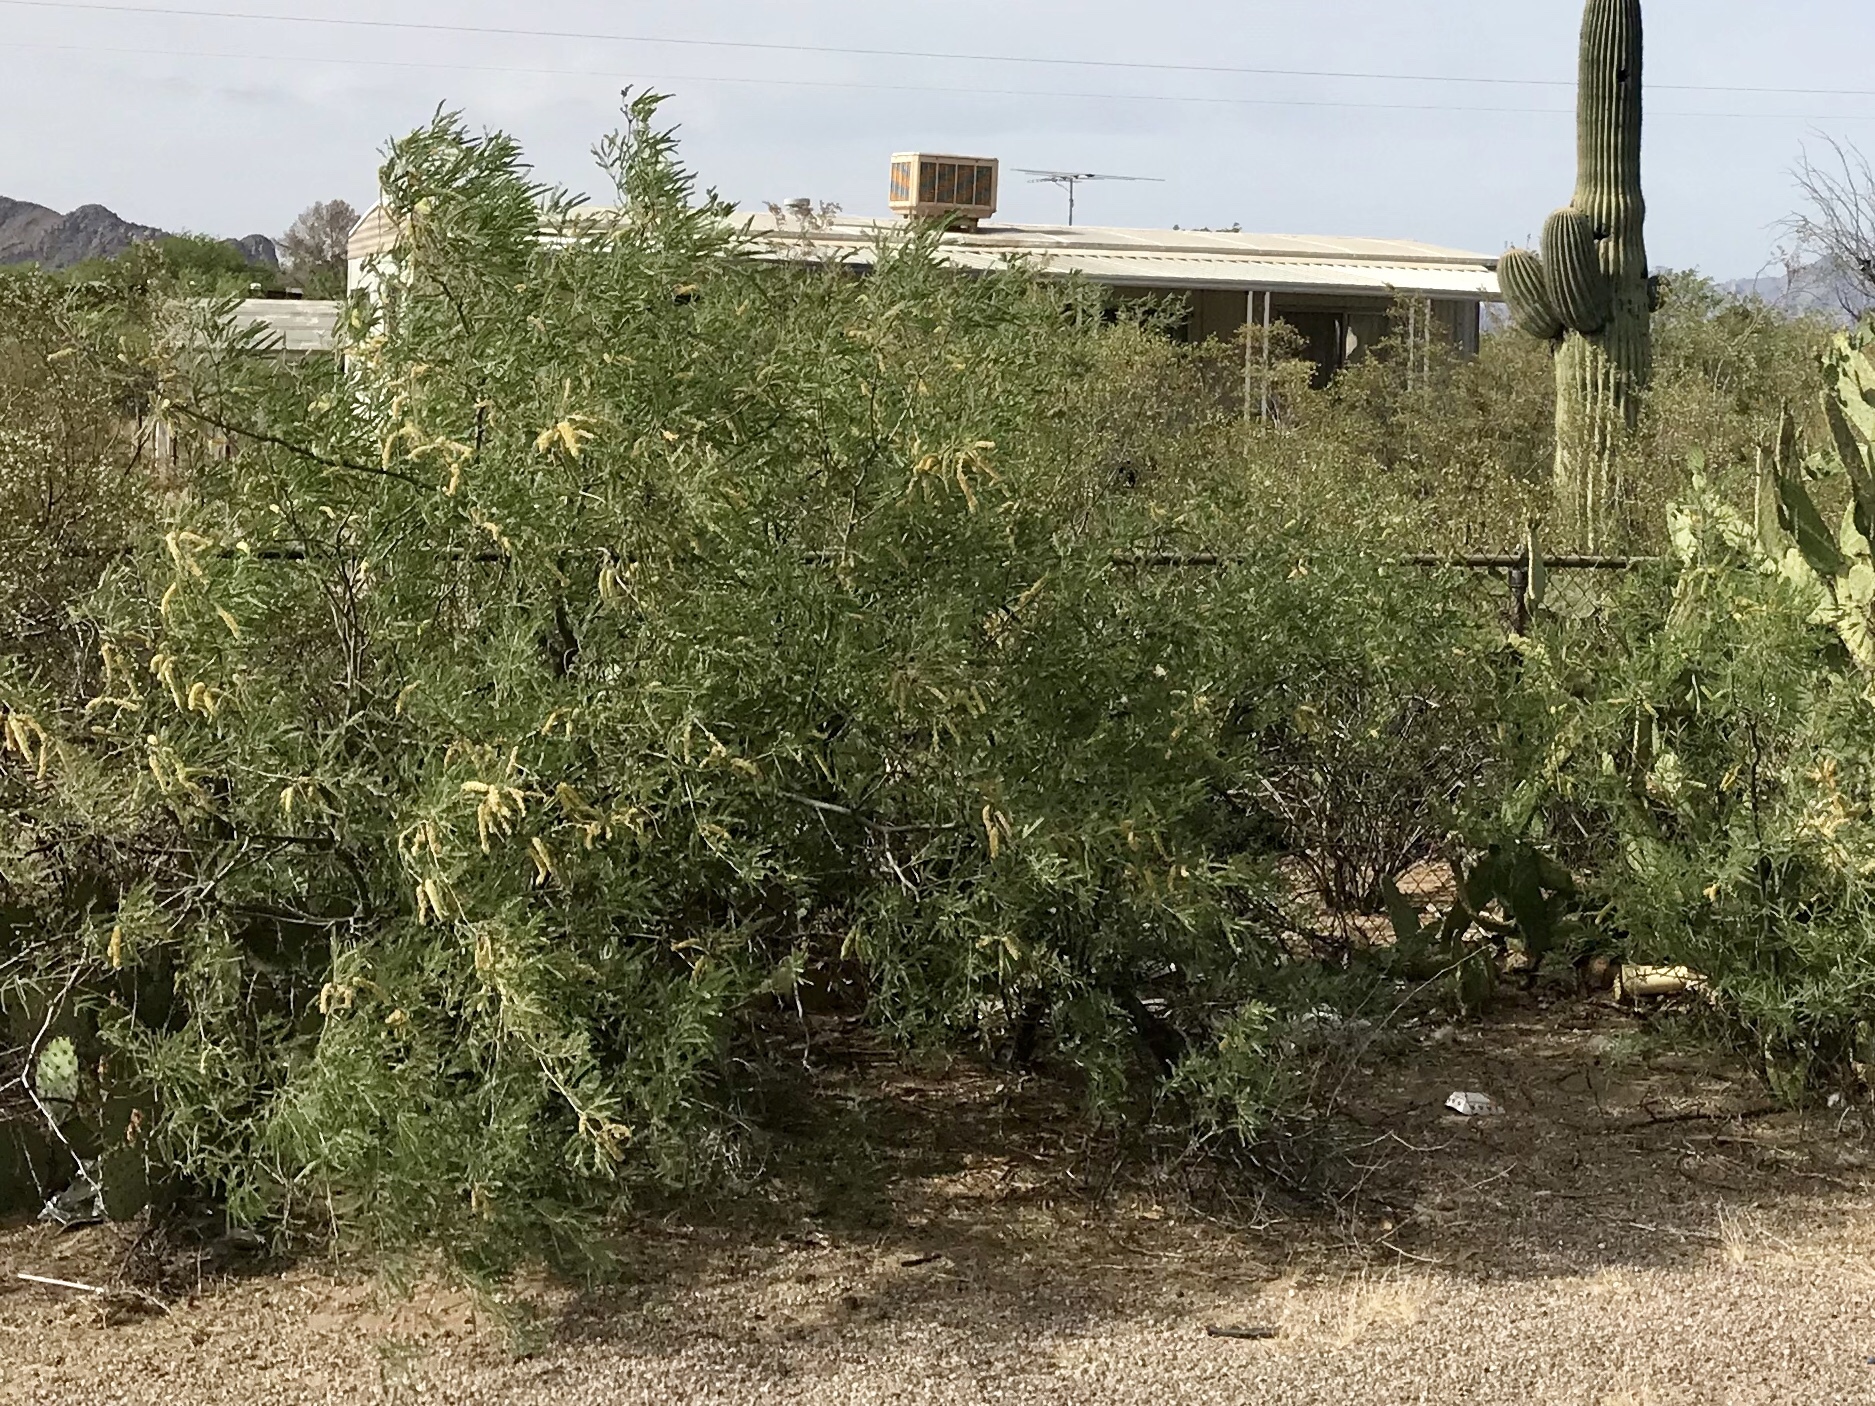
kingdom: Plantae
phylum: Tracheophyta
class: Magnoliopsida
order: Fabales
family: Fabaceae
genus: Prosopis
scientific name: Prosopis velutina
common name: Velvet mesquite
